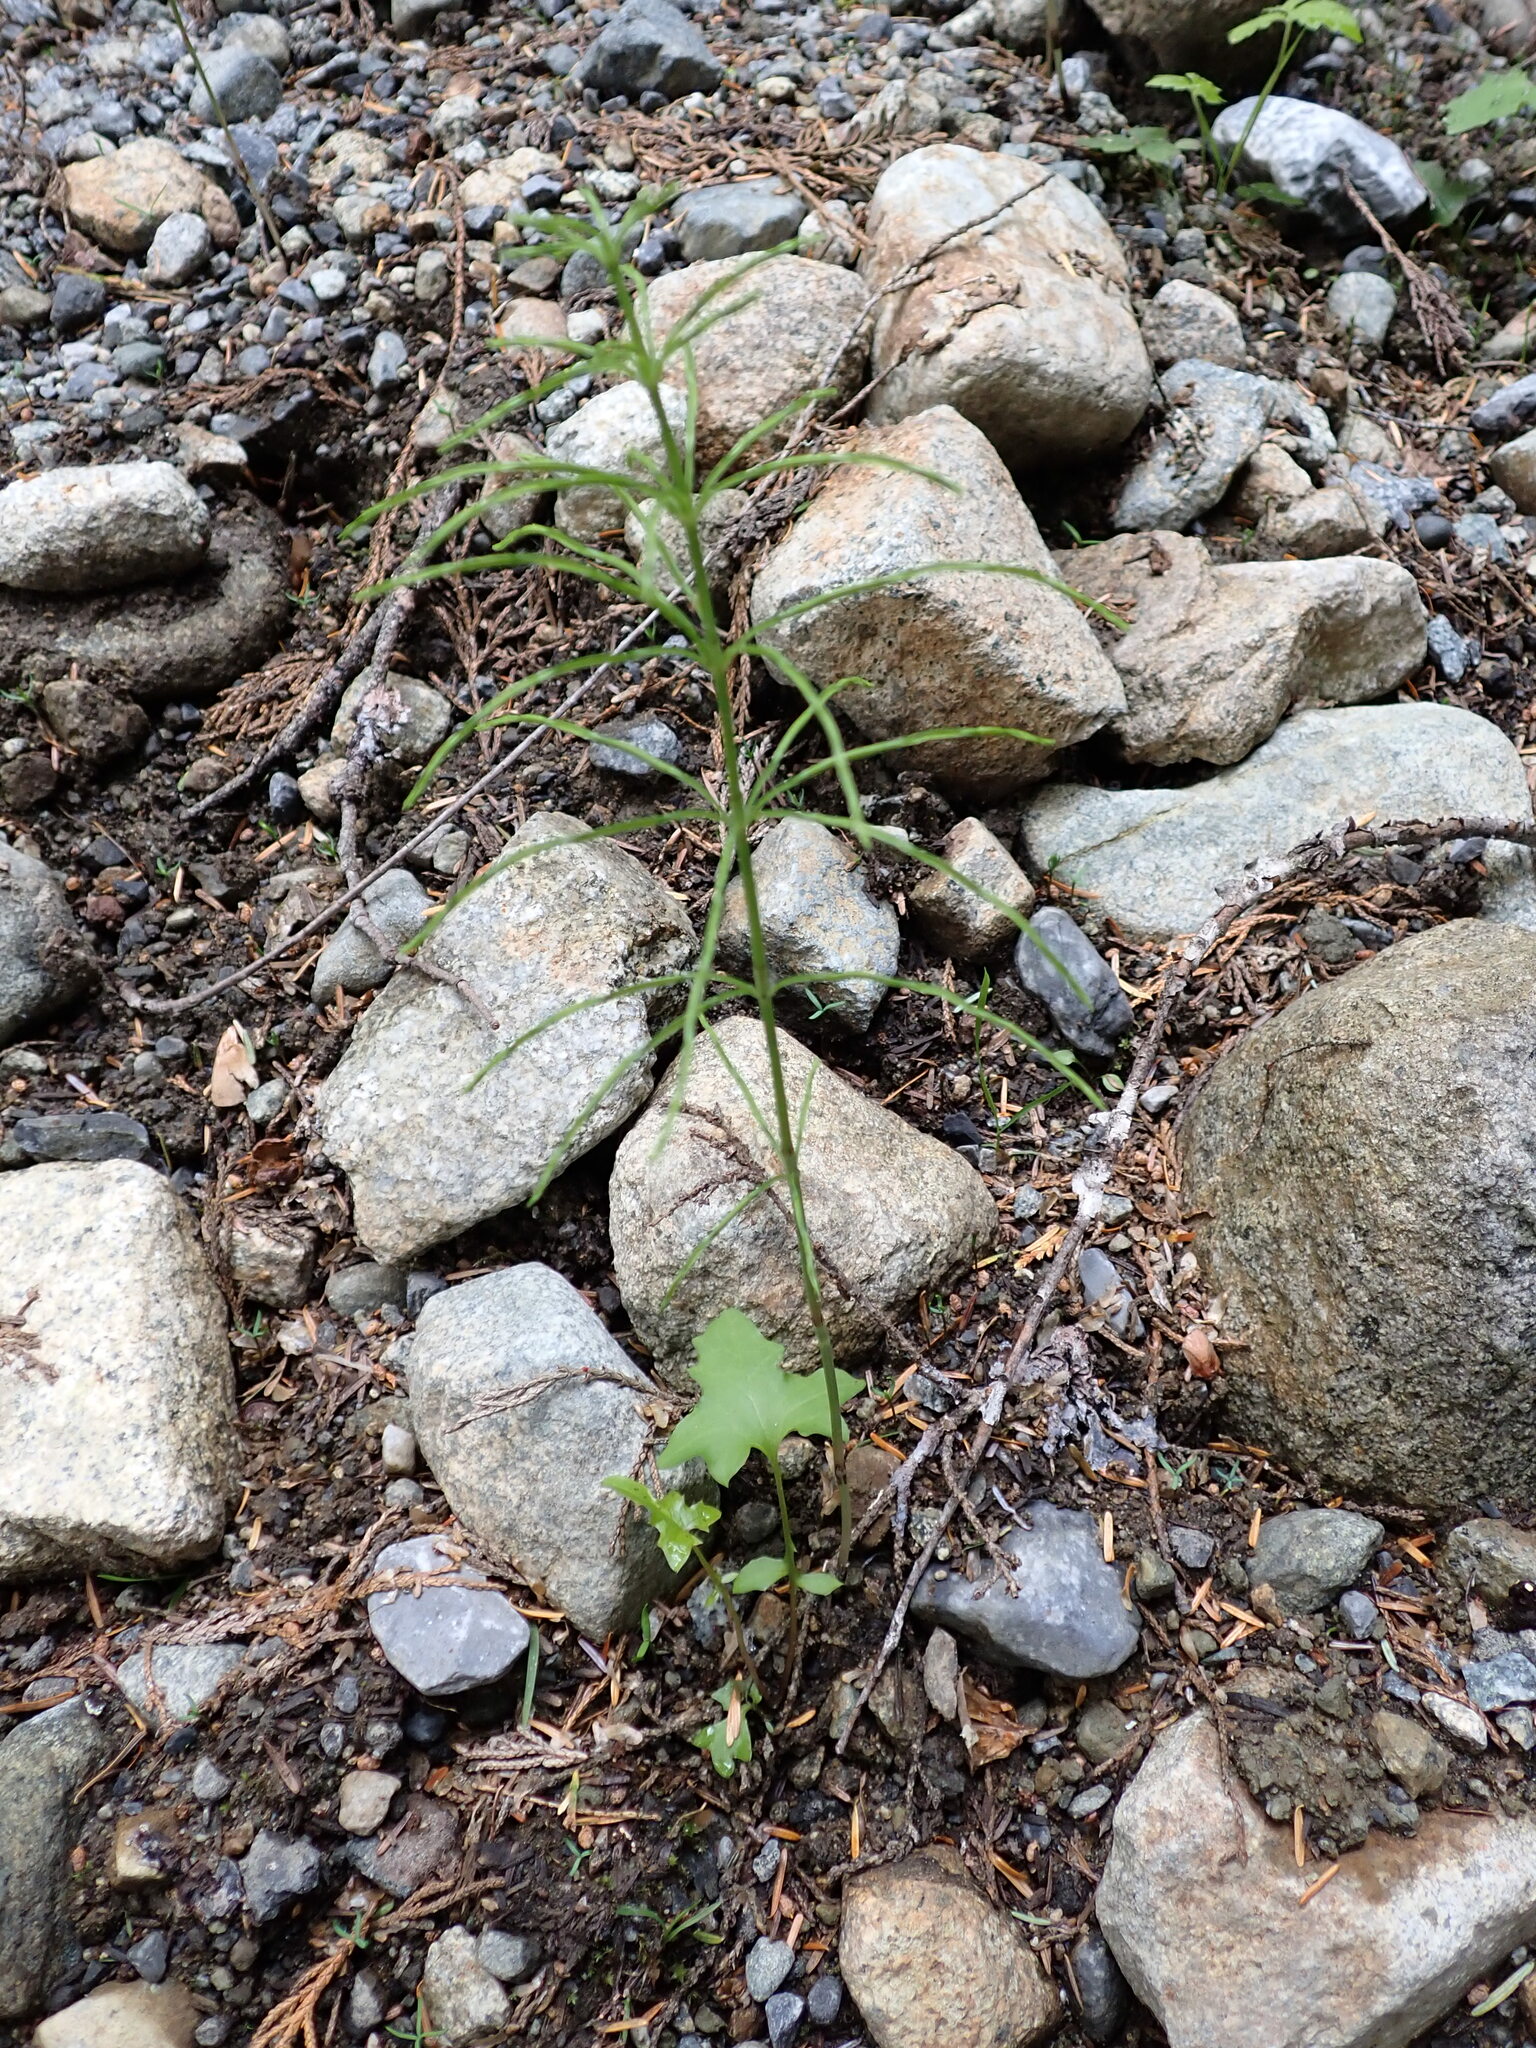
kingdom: Plantae
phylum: Tracheophyta
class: Polypodiopsida
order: Equisetales
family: Equisetaceae
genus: Equisetum
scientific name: Equisetum arvense
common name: Field horsetail
